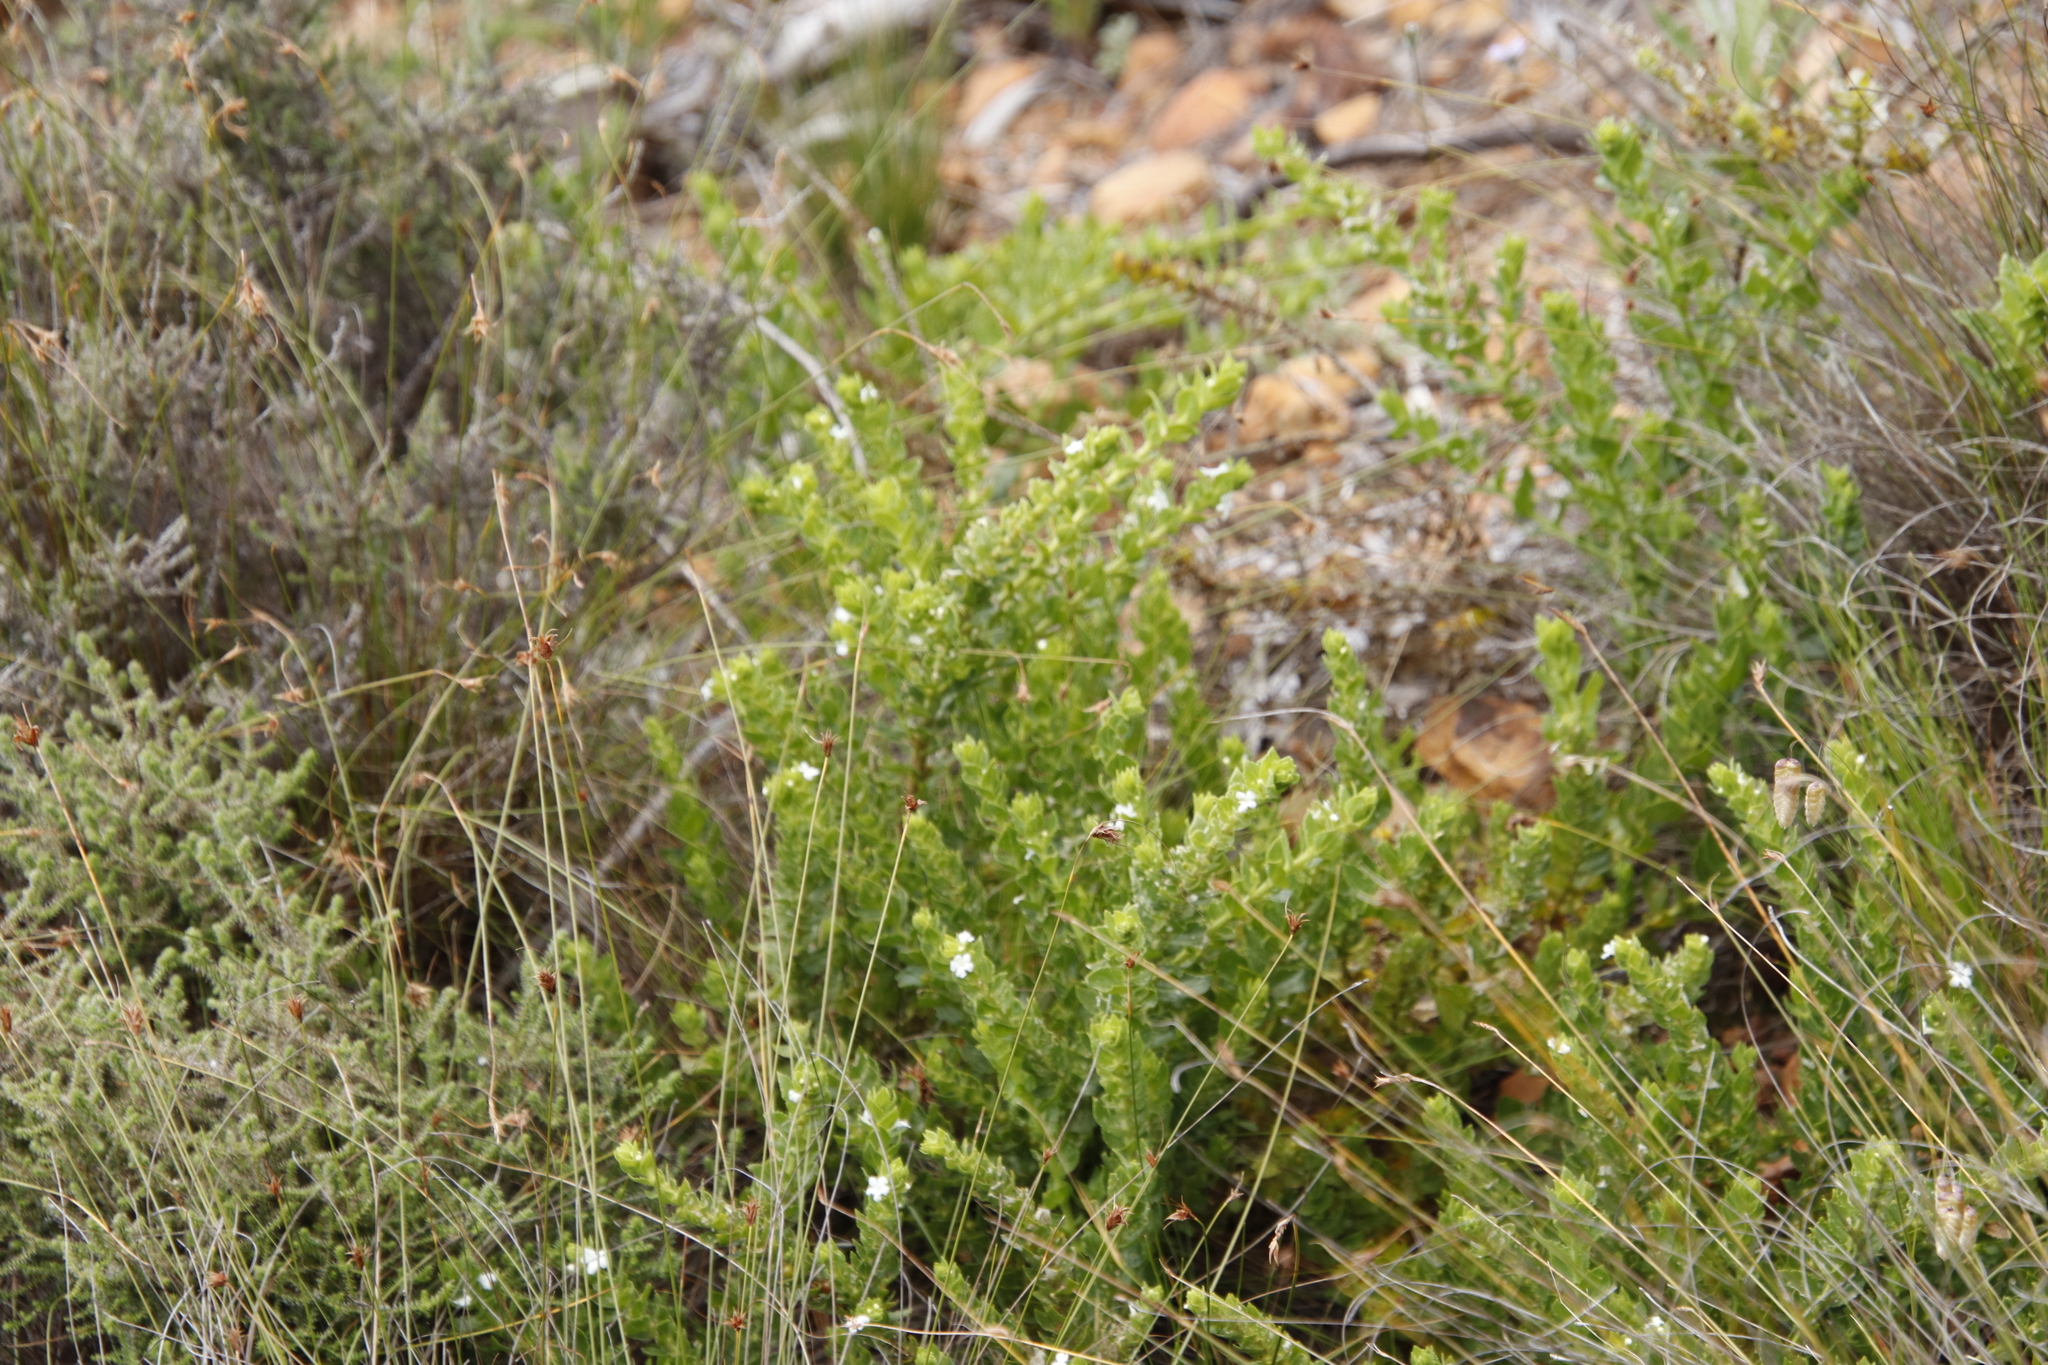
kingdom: Plantae
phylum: Tracheophyta
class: Magnoliopsida
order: Lamiales
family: Scrophulariaceae
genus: Oftia
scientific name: Oftia africana
